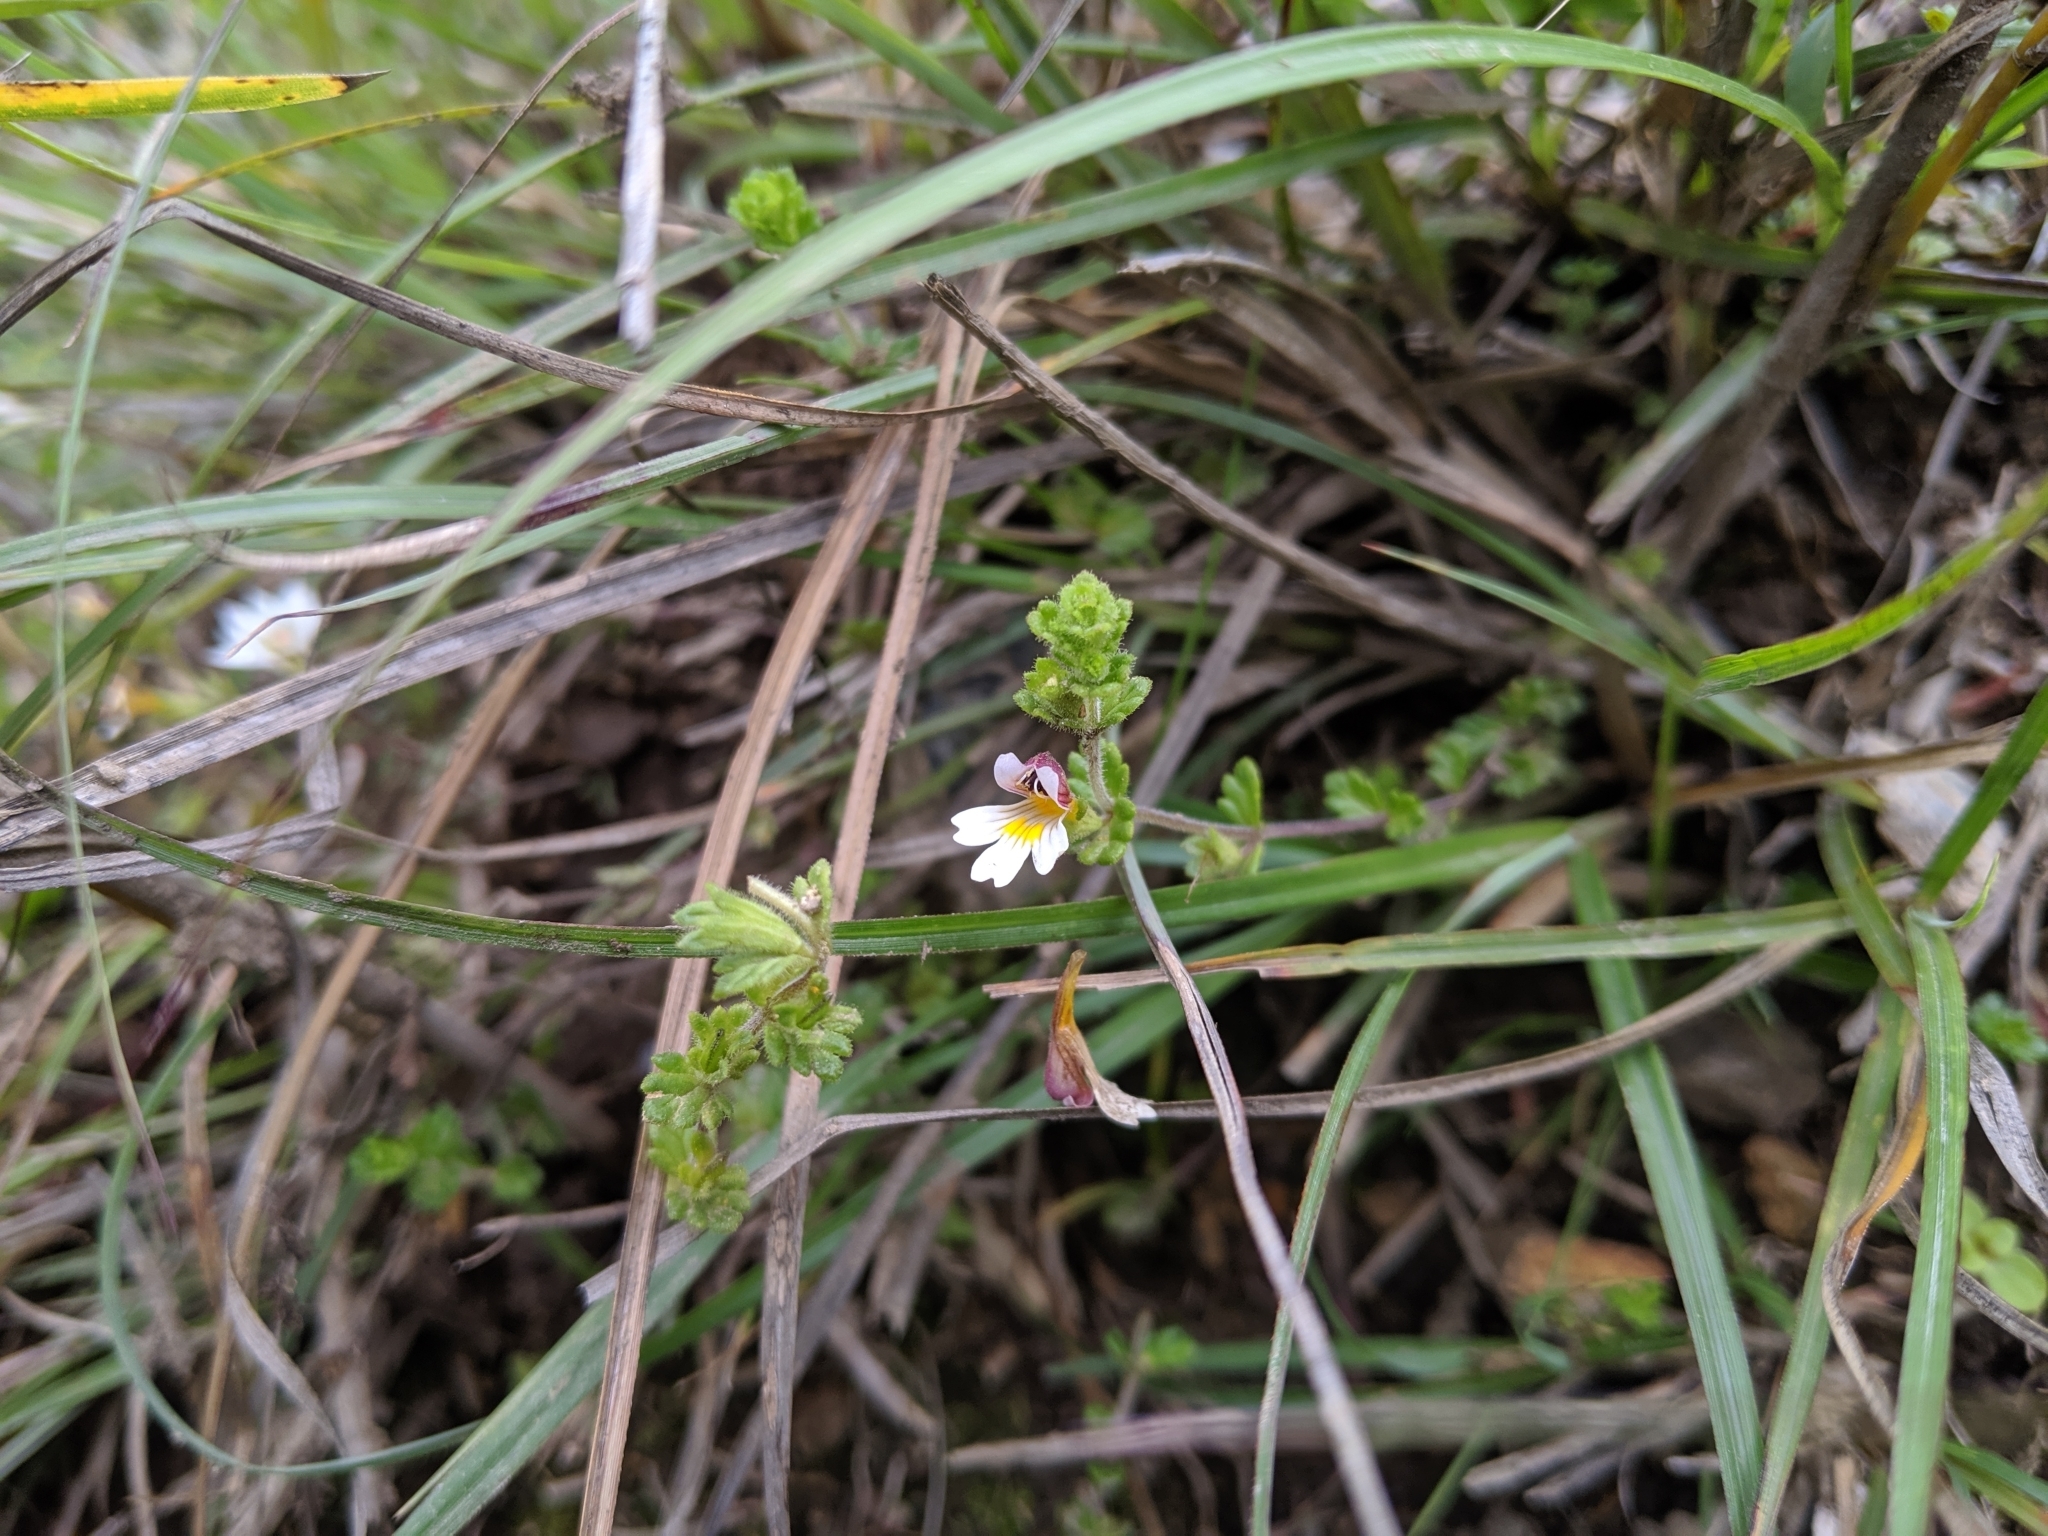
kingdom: Plantae
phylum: Tracheophyta
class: Magnoliopsida
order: Lamiales
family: Orobanchaceae
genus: Euphrasia
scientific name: Euphrasia transmorrisonensis
